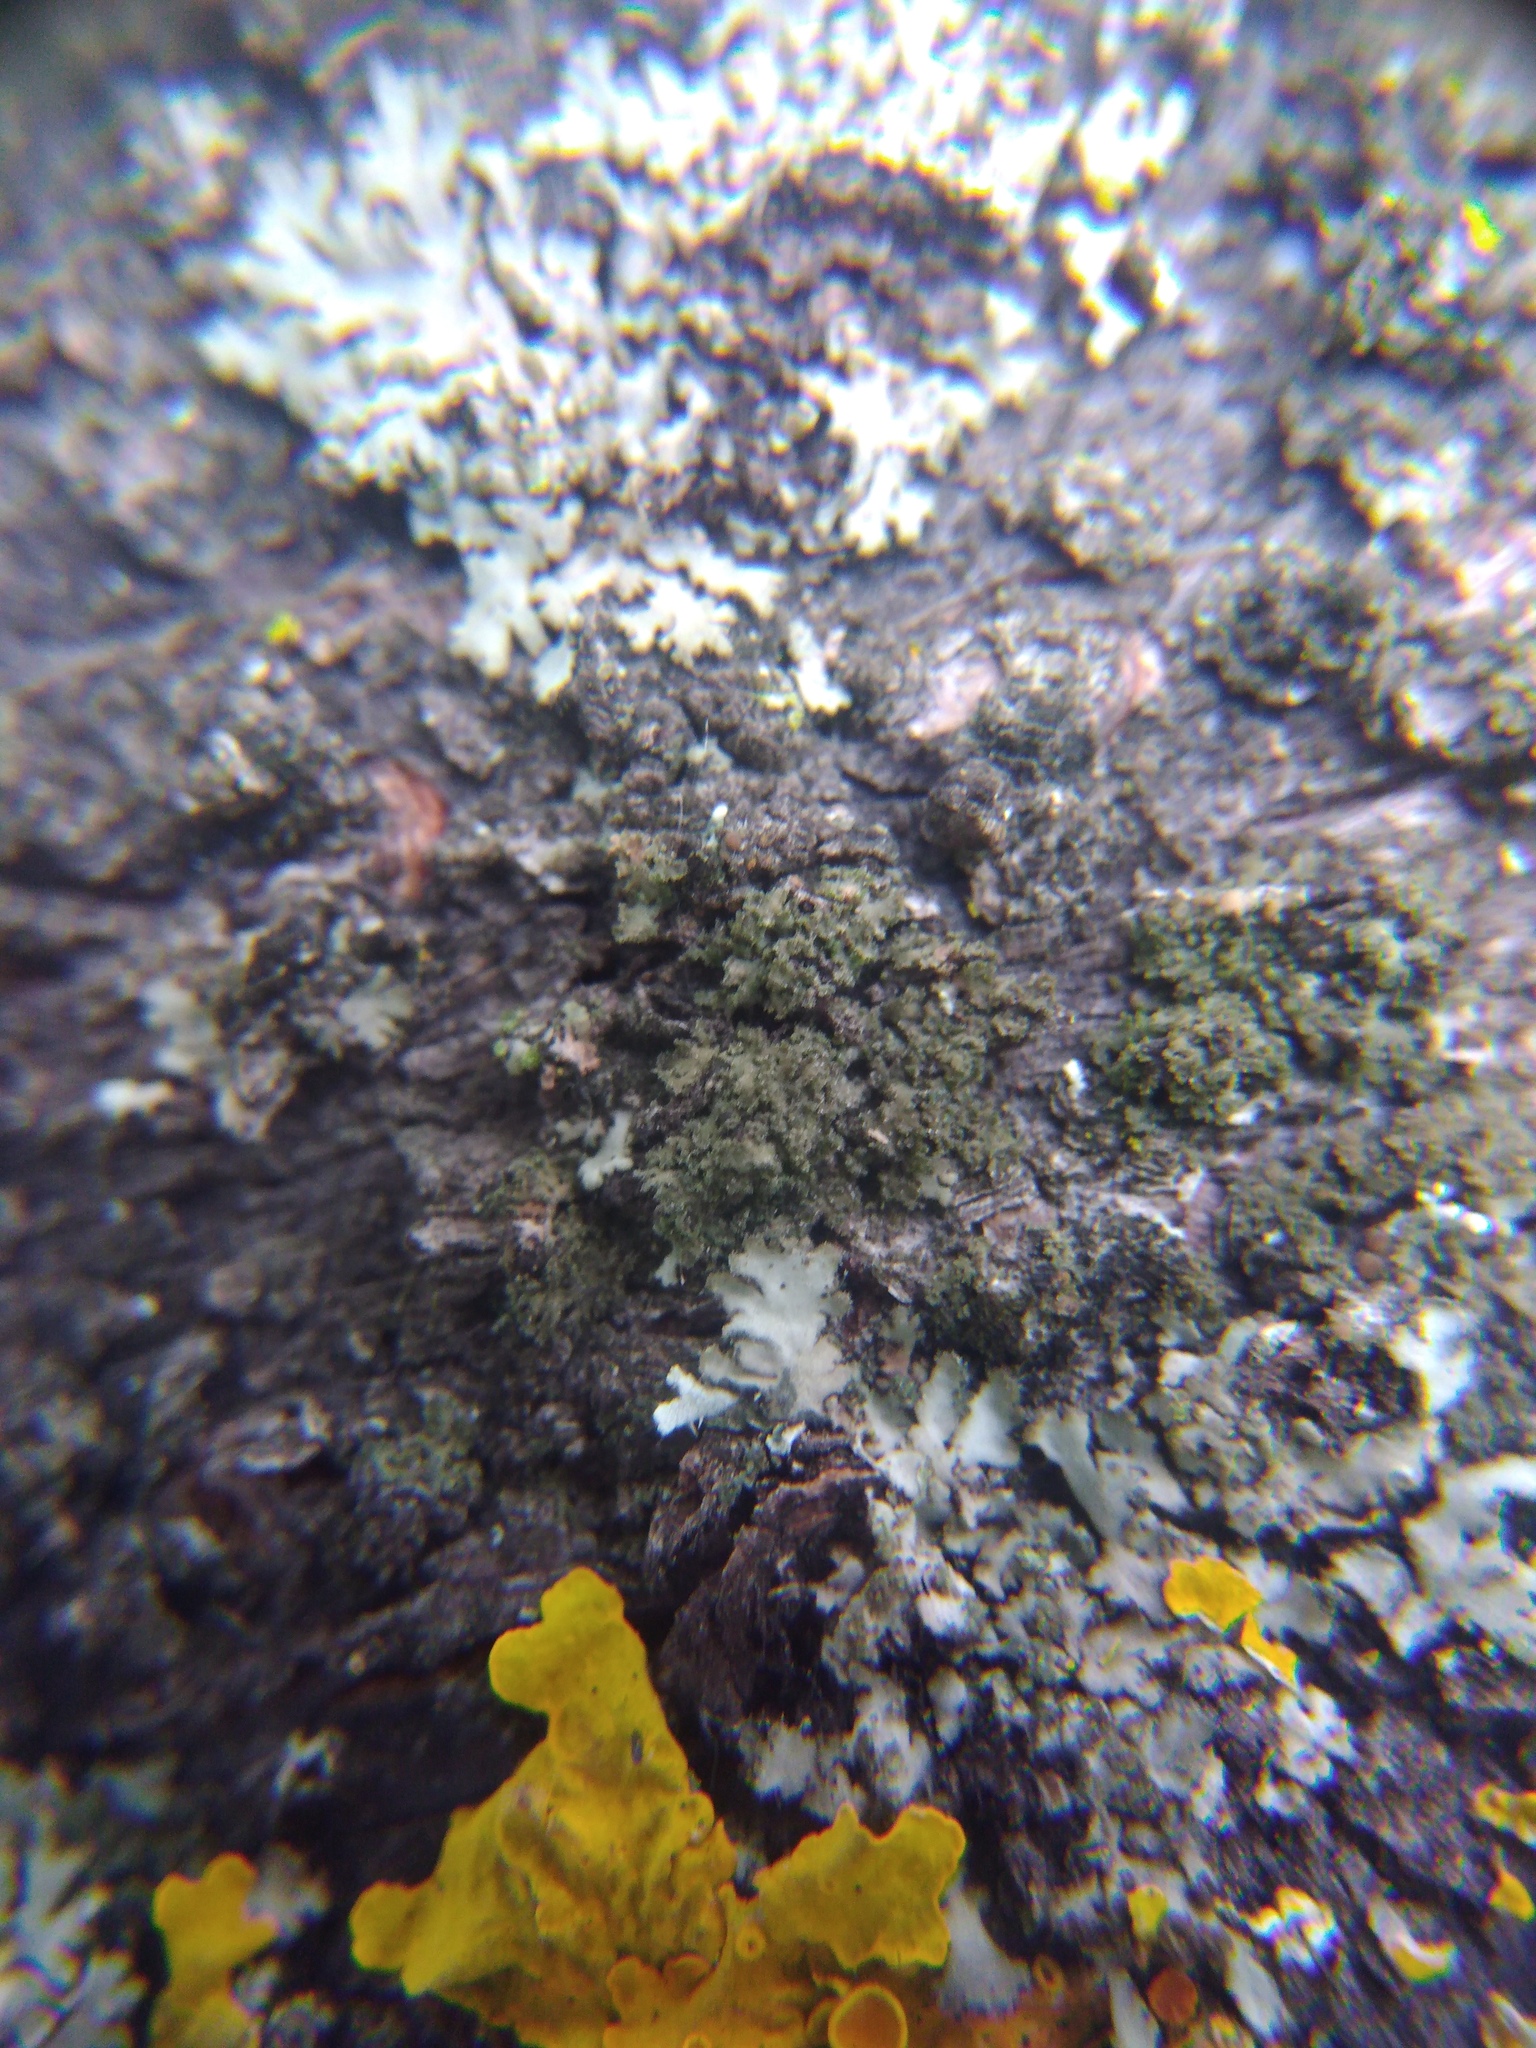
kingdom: Fungi
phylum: Ascomycota
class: Lecanoromycetes
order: Caliciales
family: Physciaceae
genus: Physciella
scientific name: Physciella nigricans
